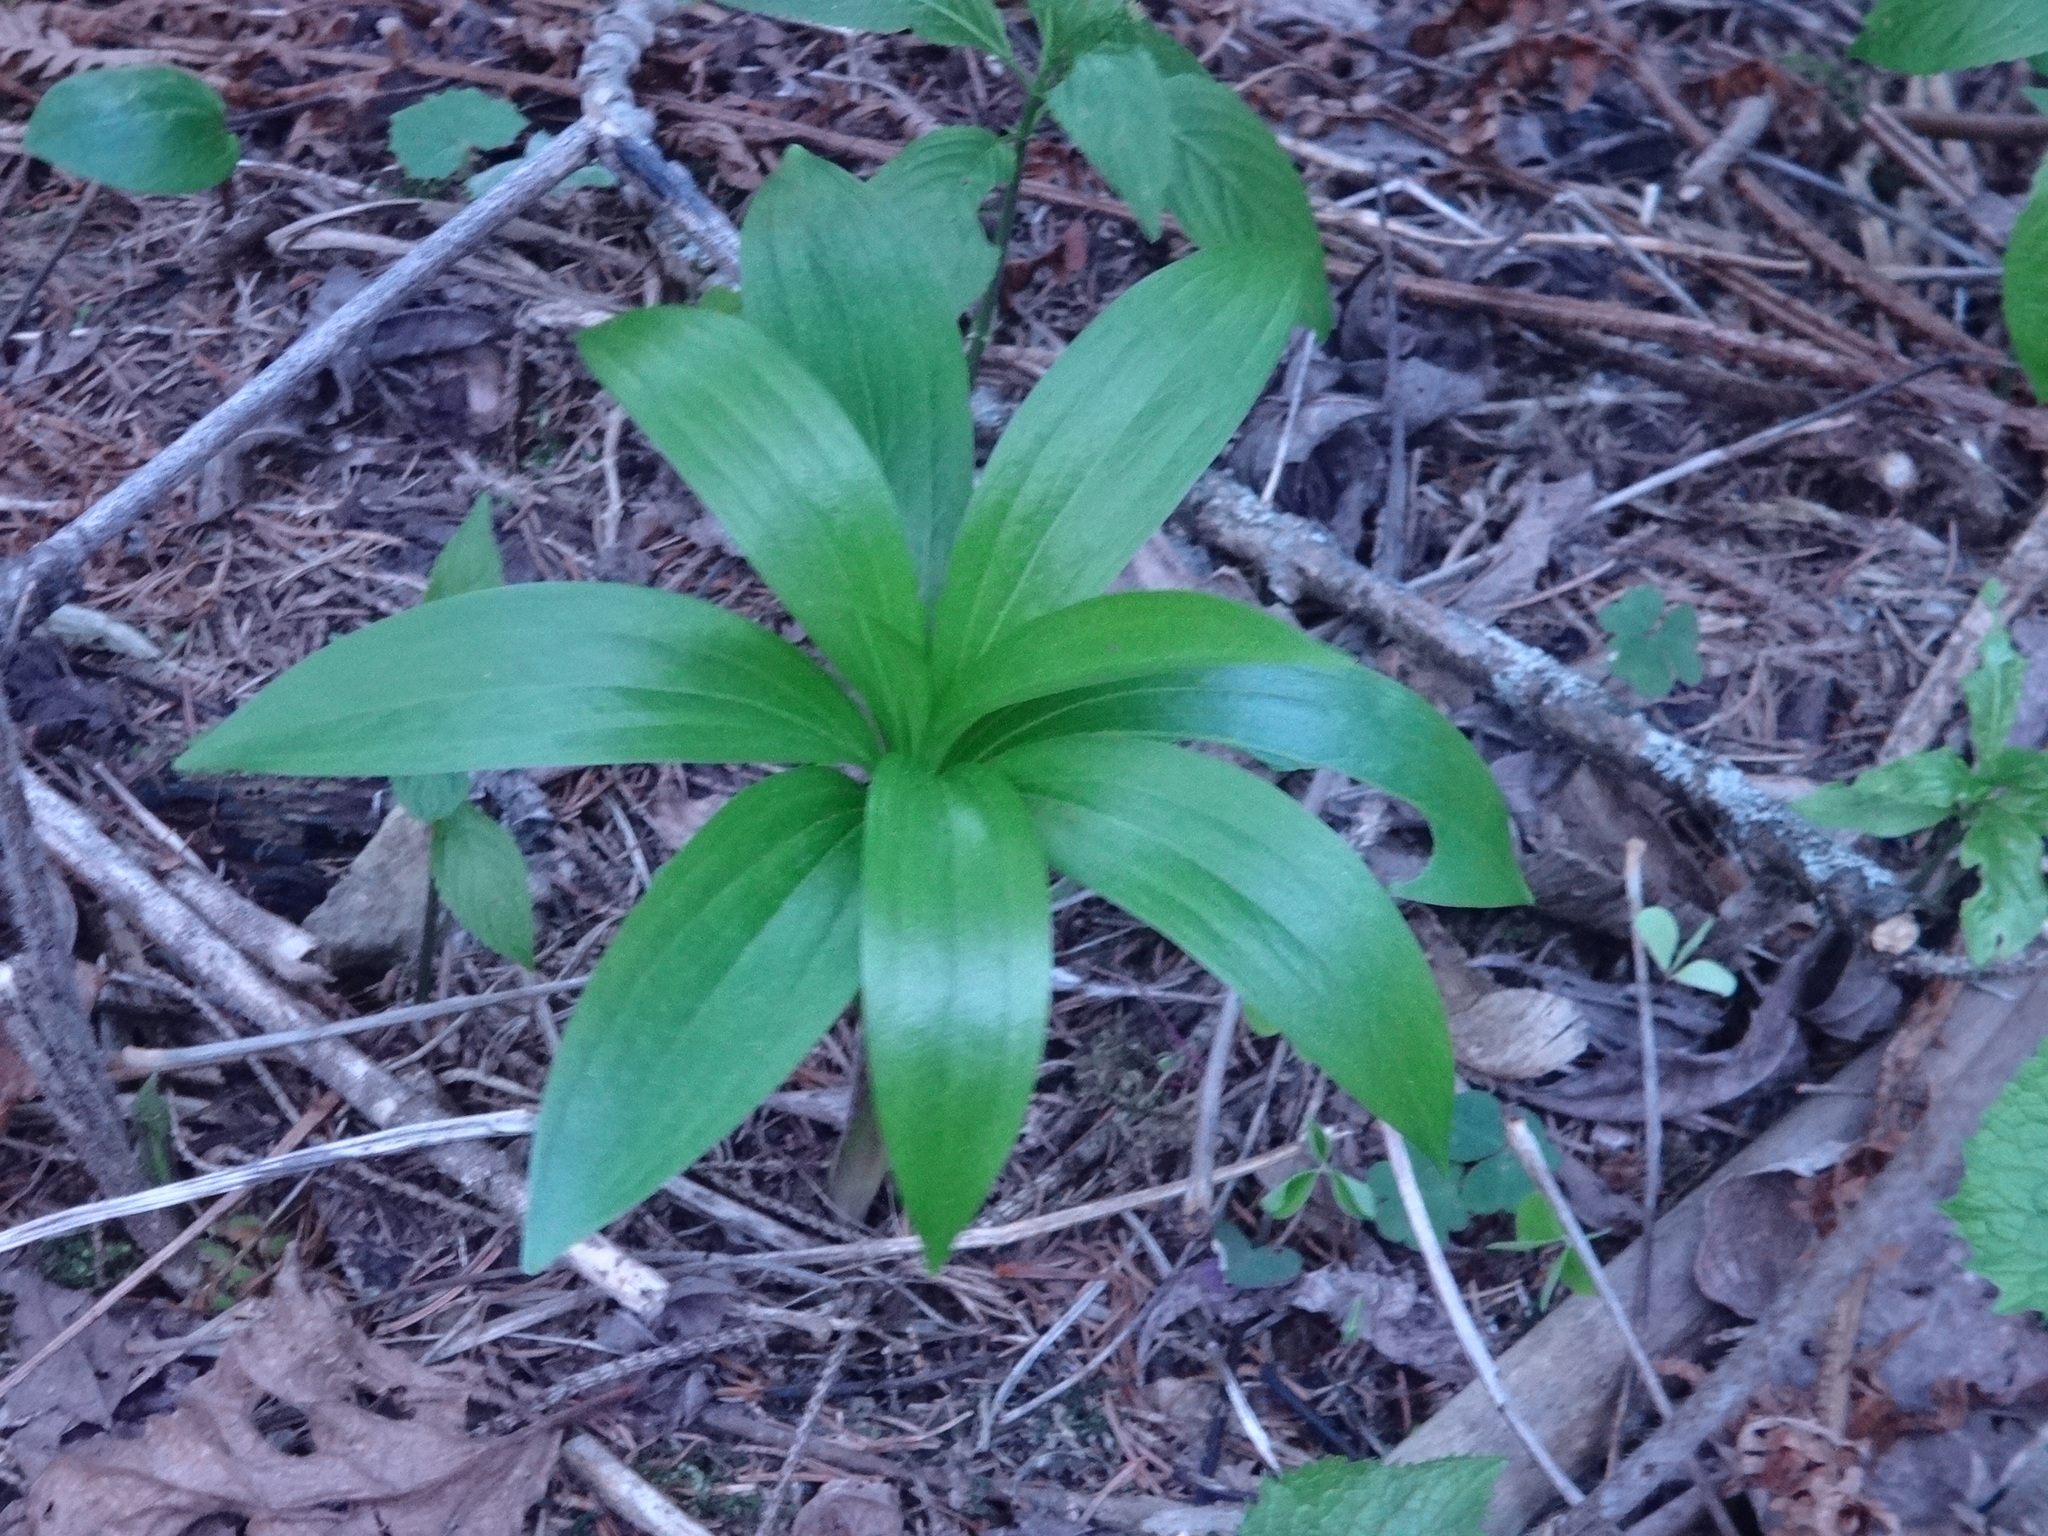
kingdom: Plantae
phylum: Tracheophyta
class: Liliopsida
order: Liliales
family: Liliaceae
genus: Lilium
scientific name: Lilium martagon
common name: Martagon lily
